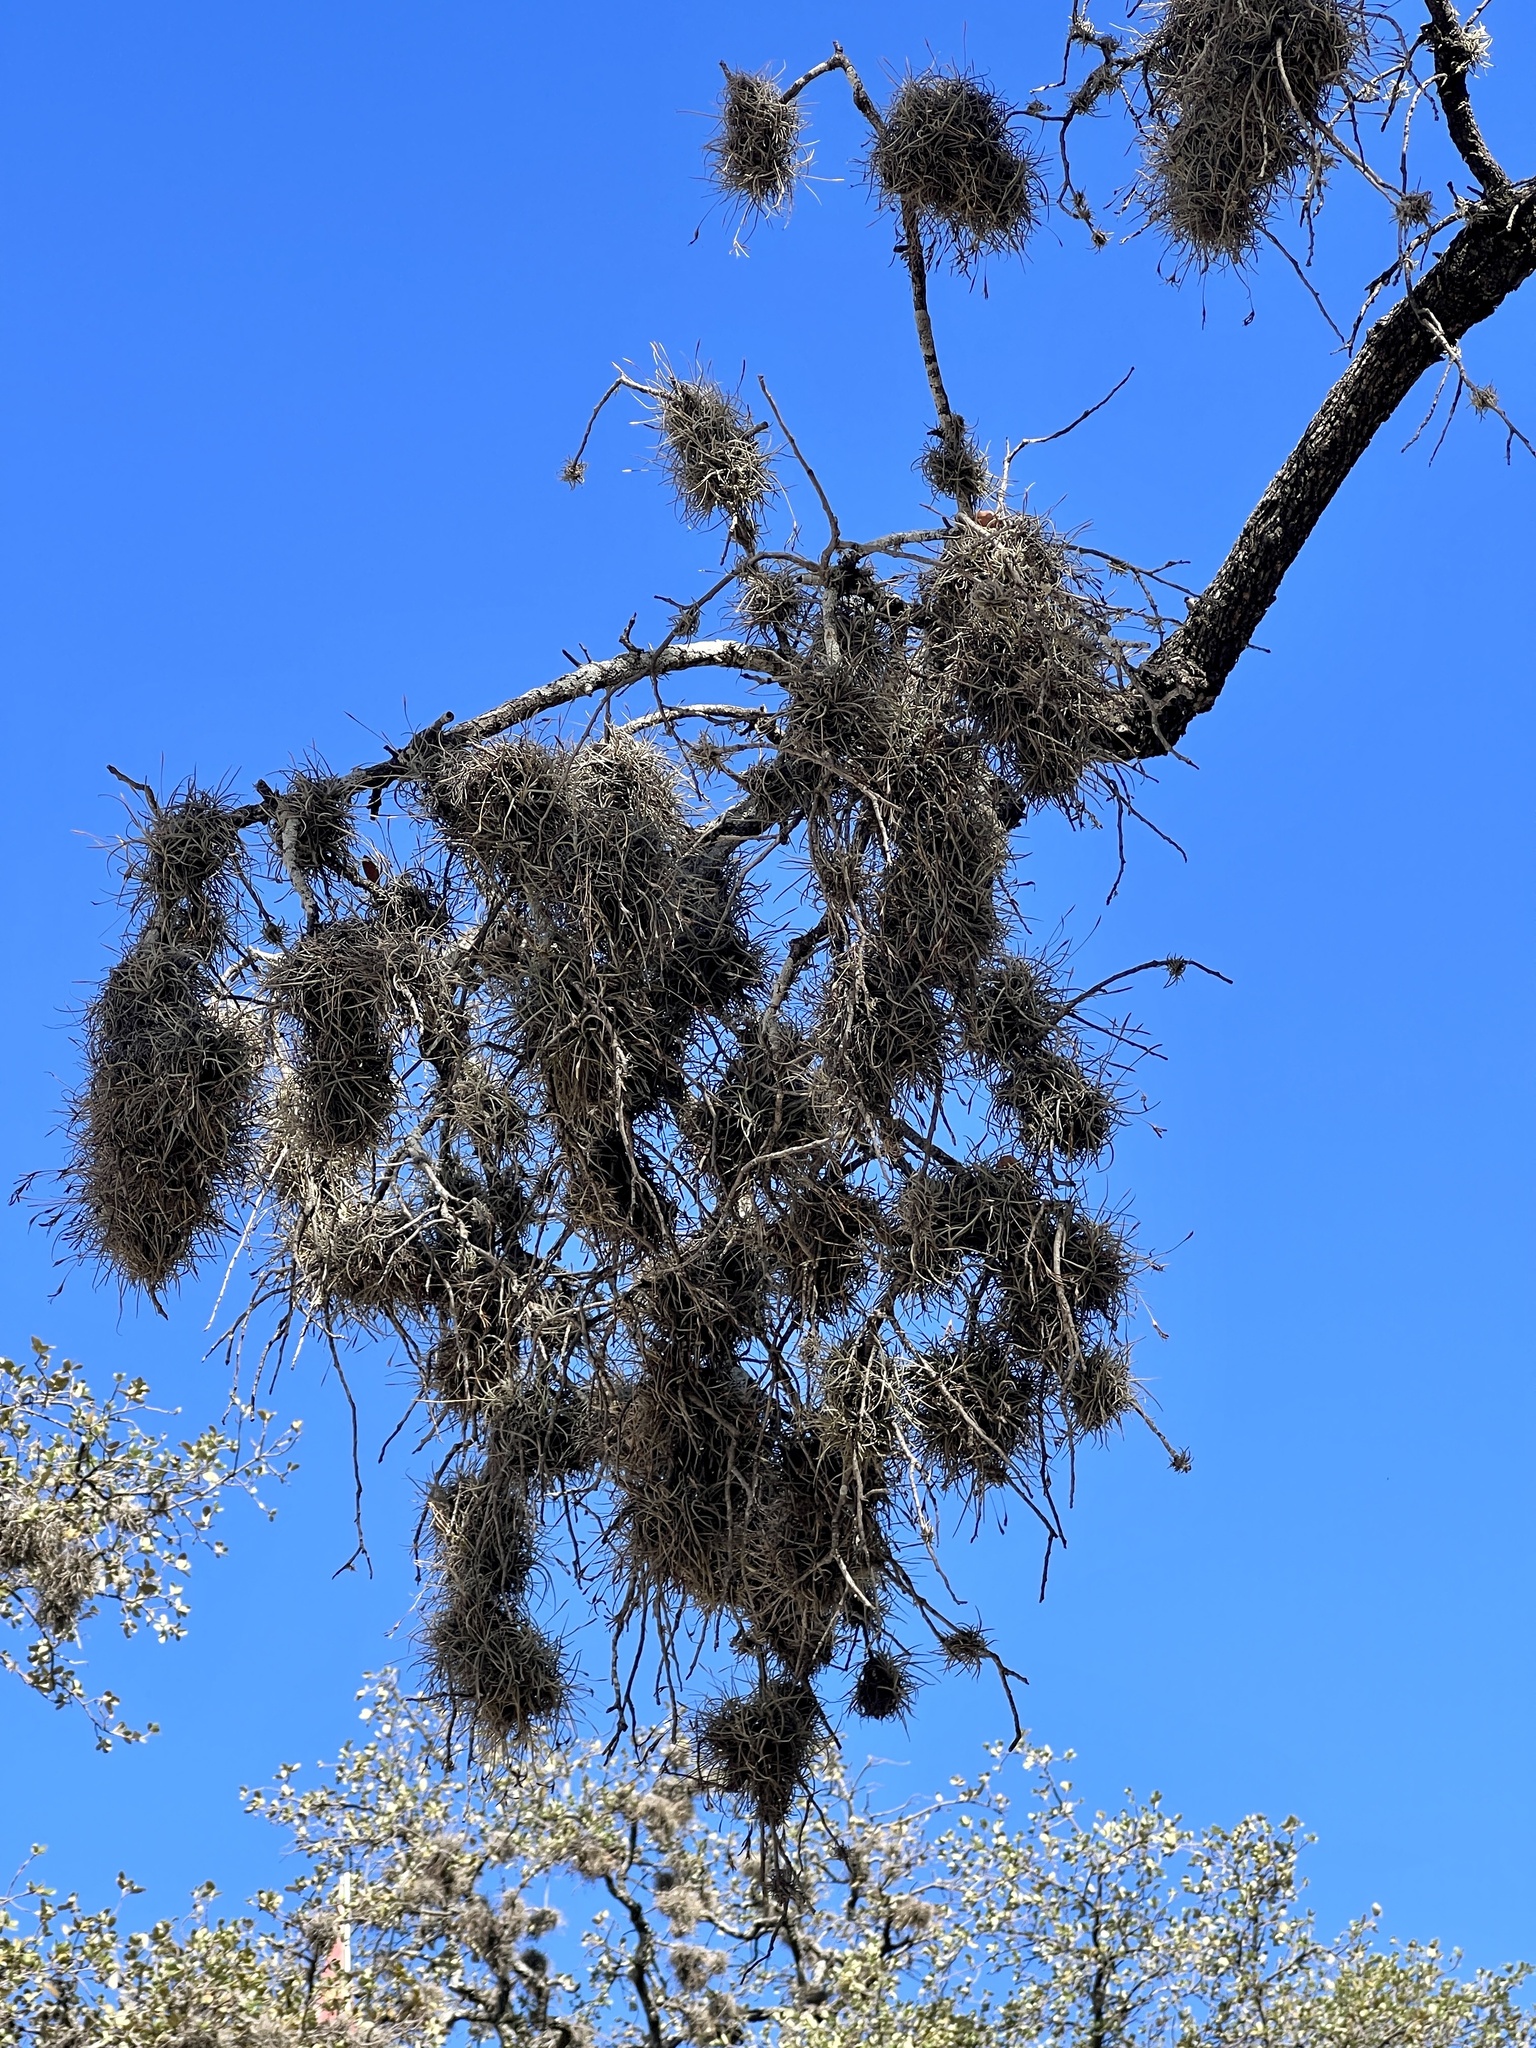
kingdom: Plantae
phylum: Tracheophyta
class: Liliopsida
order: Poales
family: Bromeliaceae
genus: Tillandsia
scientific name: Tillandsia recurvata
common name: Small ballmoss
